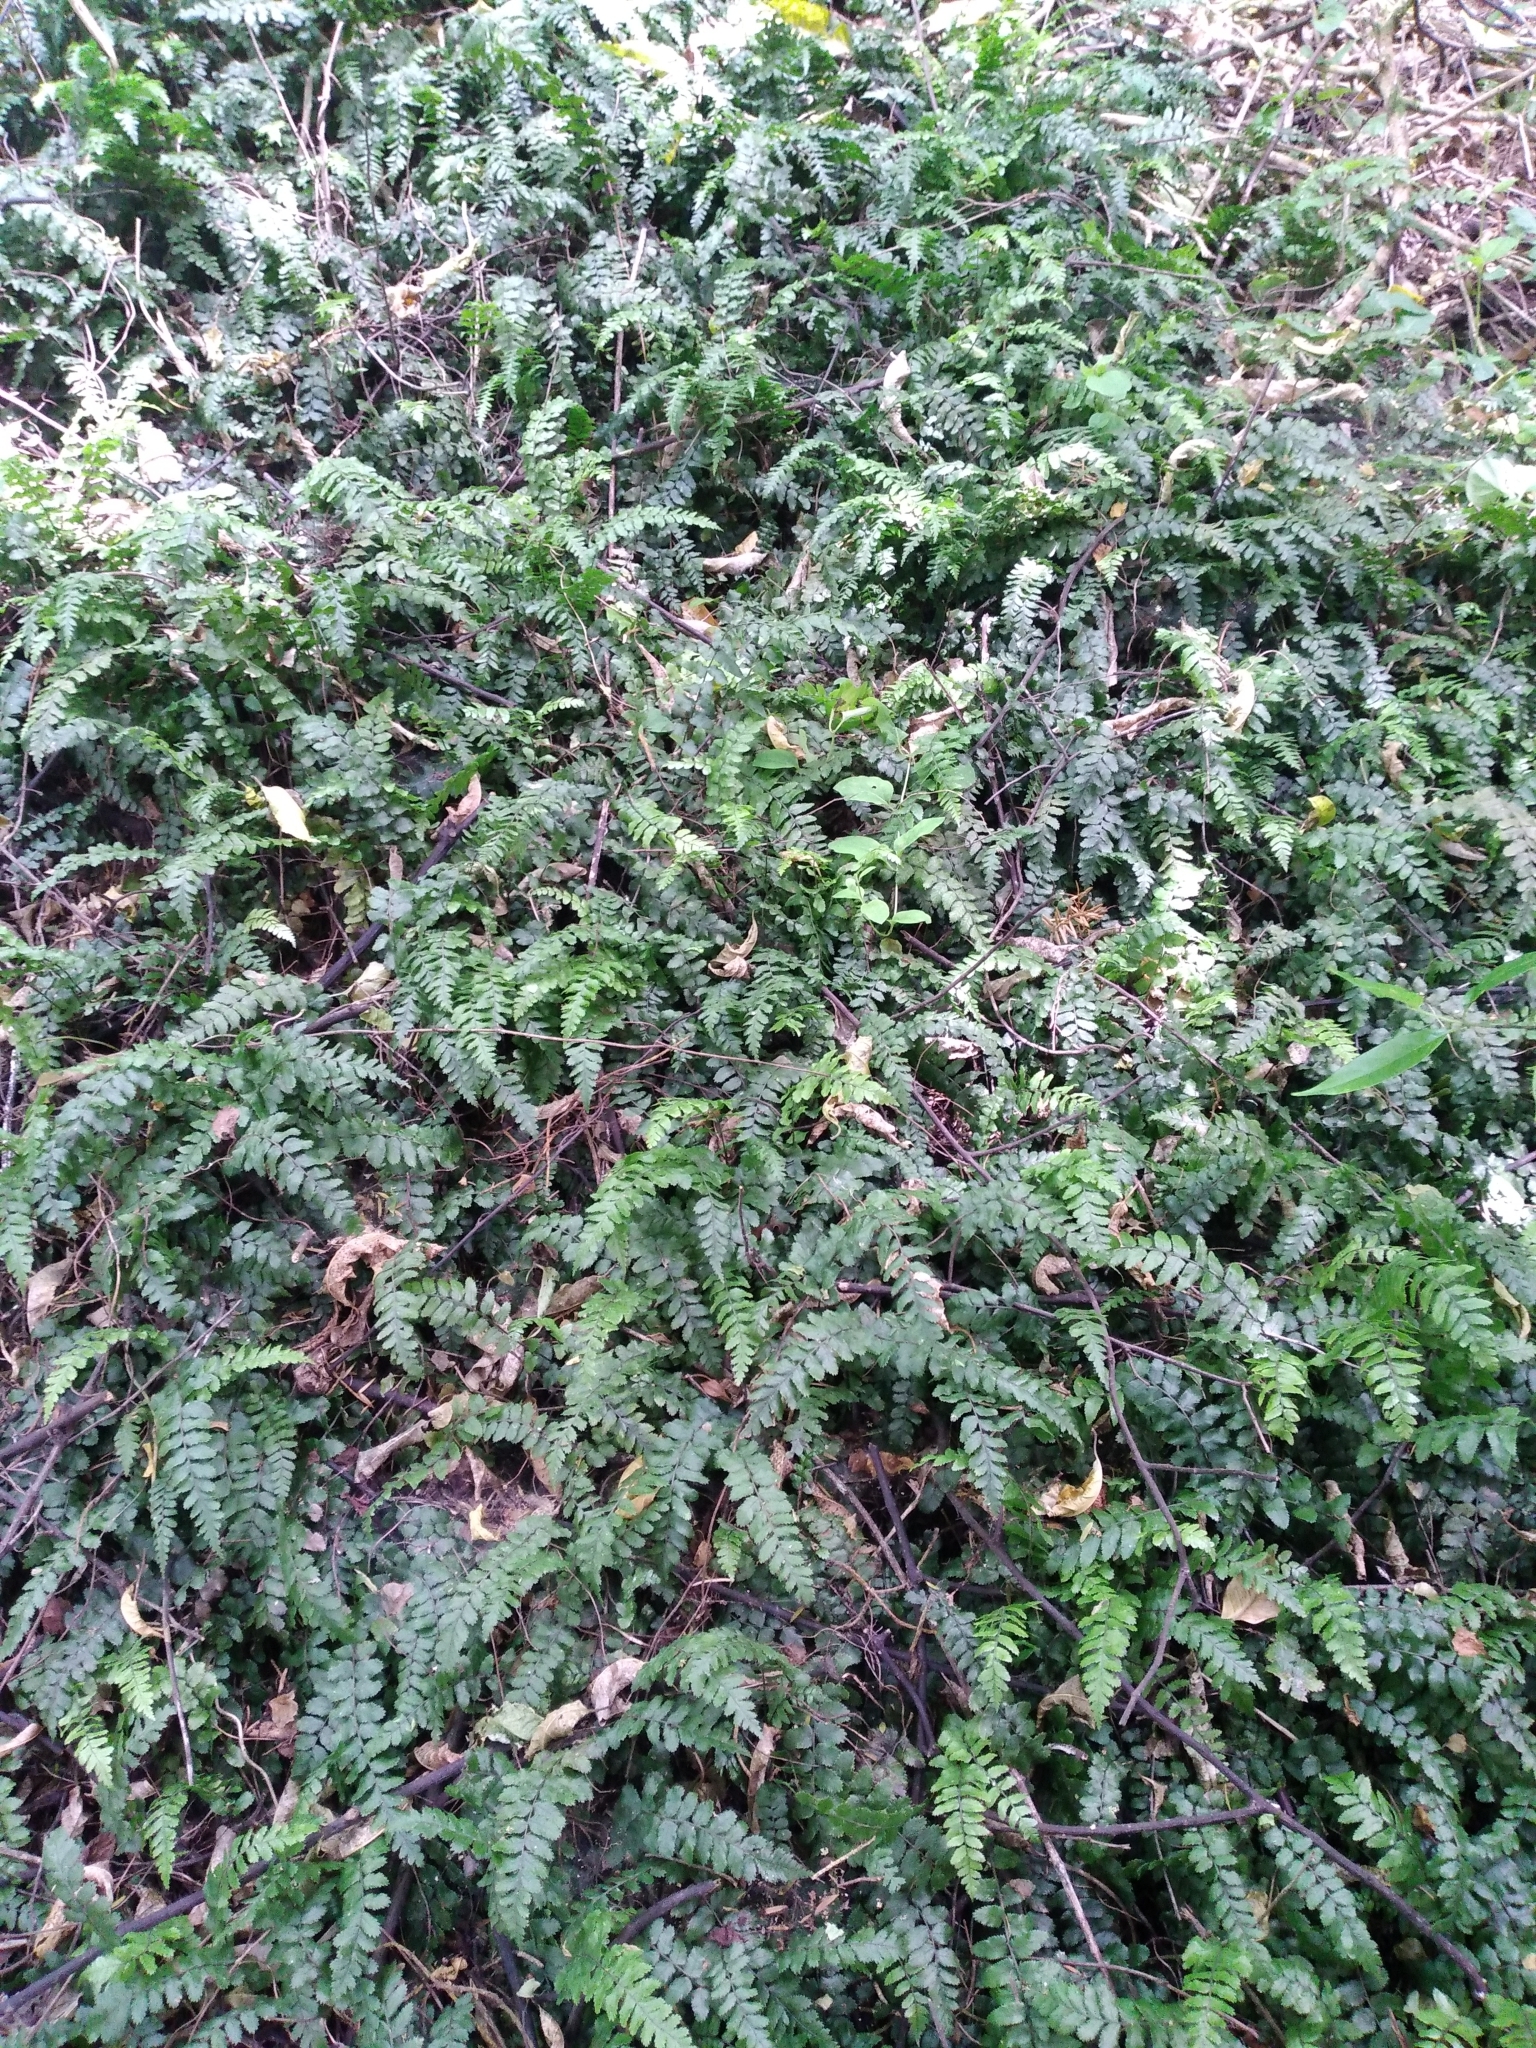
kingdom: Plantae
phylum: Tracheophyta
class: Polypodiopsida
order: Polypodiales
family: Blechnaceae
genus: Icarus
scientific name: Icarus filiformis
